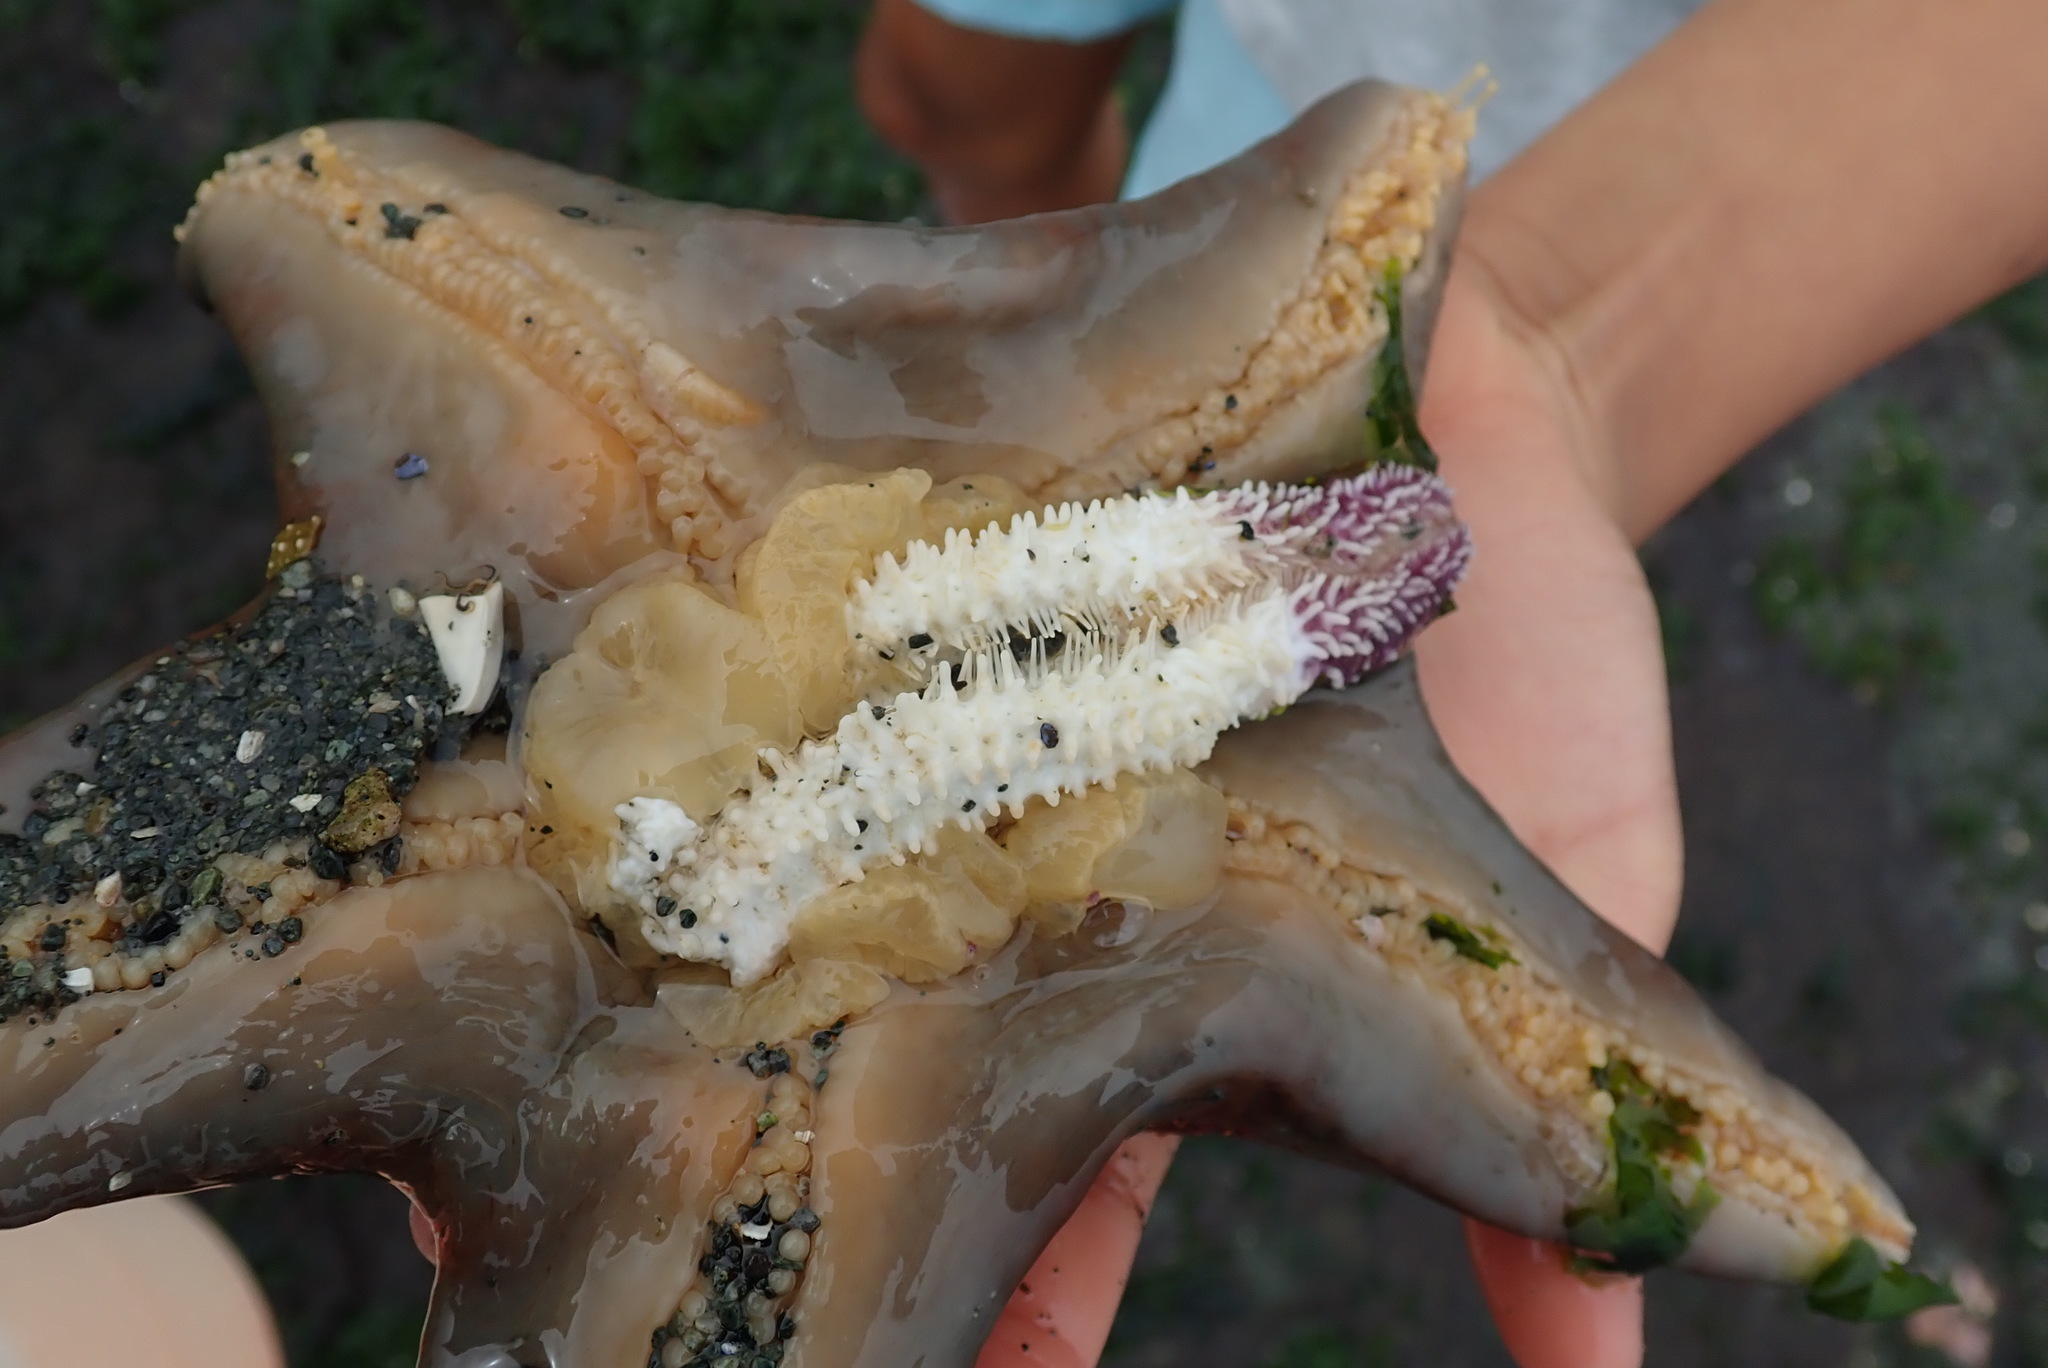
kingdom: Animalia
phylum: Echinodermata
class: Asteroidea
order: Valvatida
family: Asteropseidae
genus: Dermasterias
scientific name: Dermasterias imbricata
